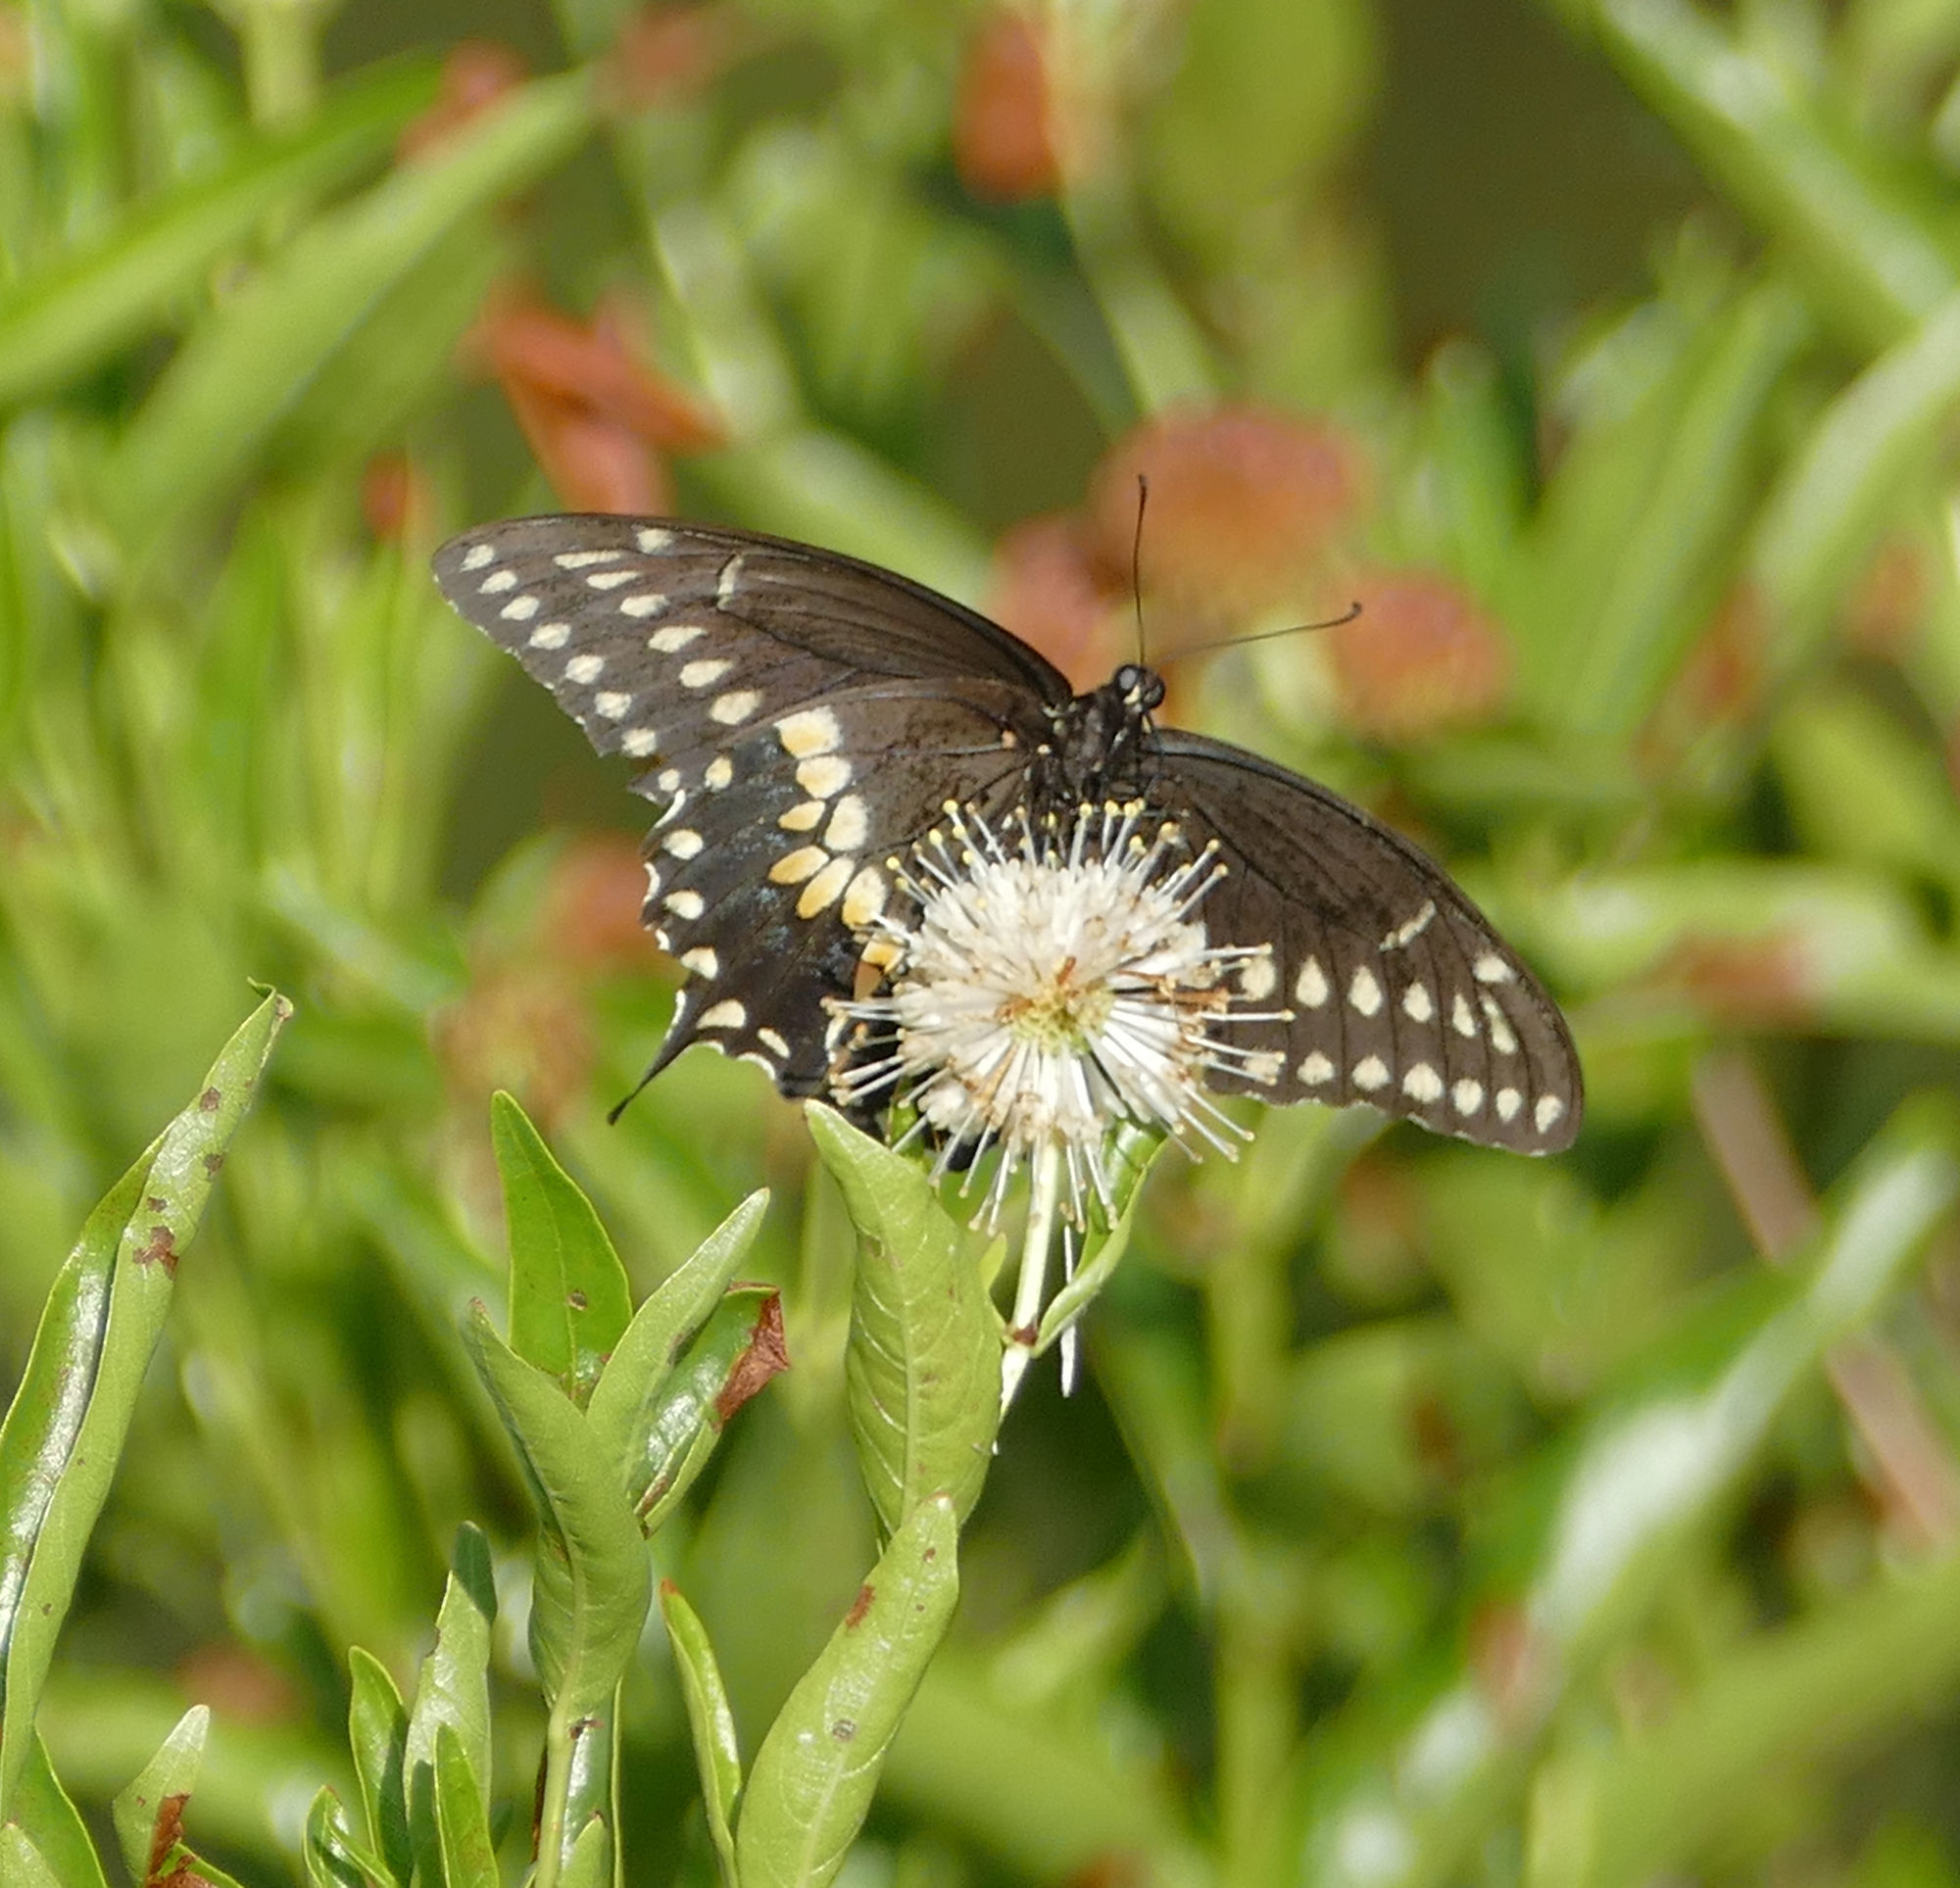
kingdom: Animalia
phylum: Arthropoda
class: Insecta
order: Lepidoptera
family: Papilionidae
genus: Papilio
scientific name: Papilio polyxenes
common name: Black swallowtail
